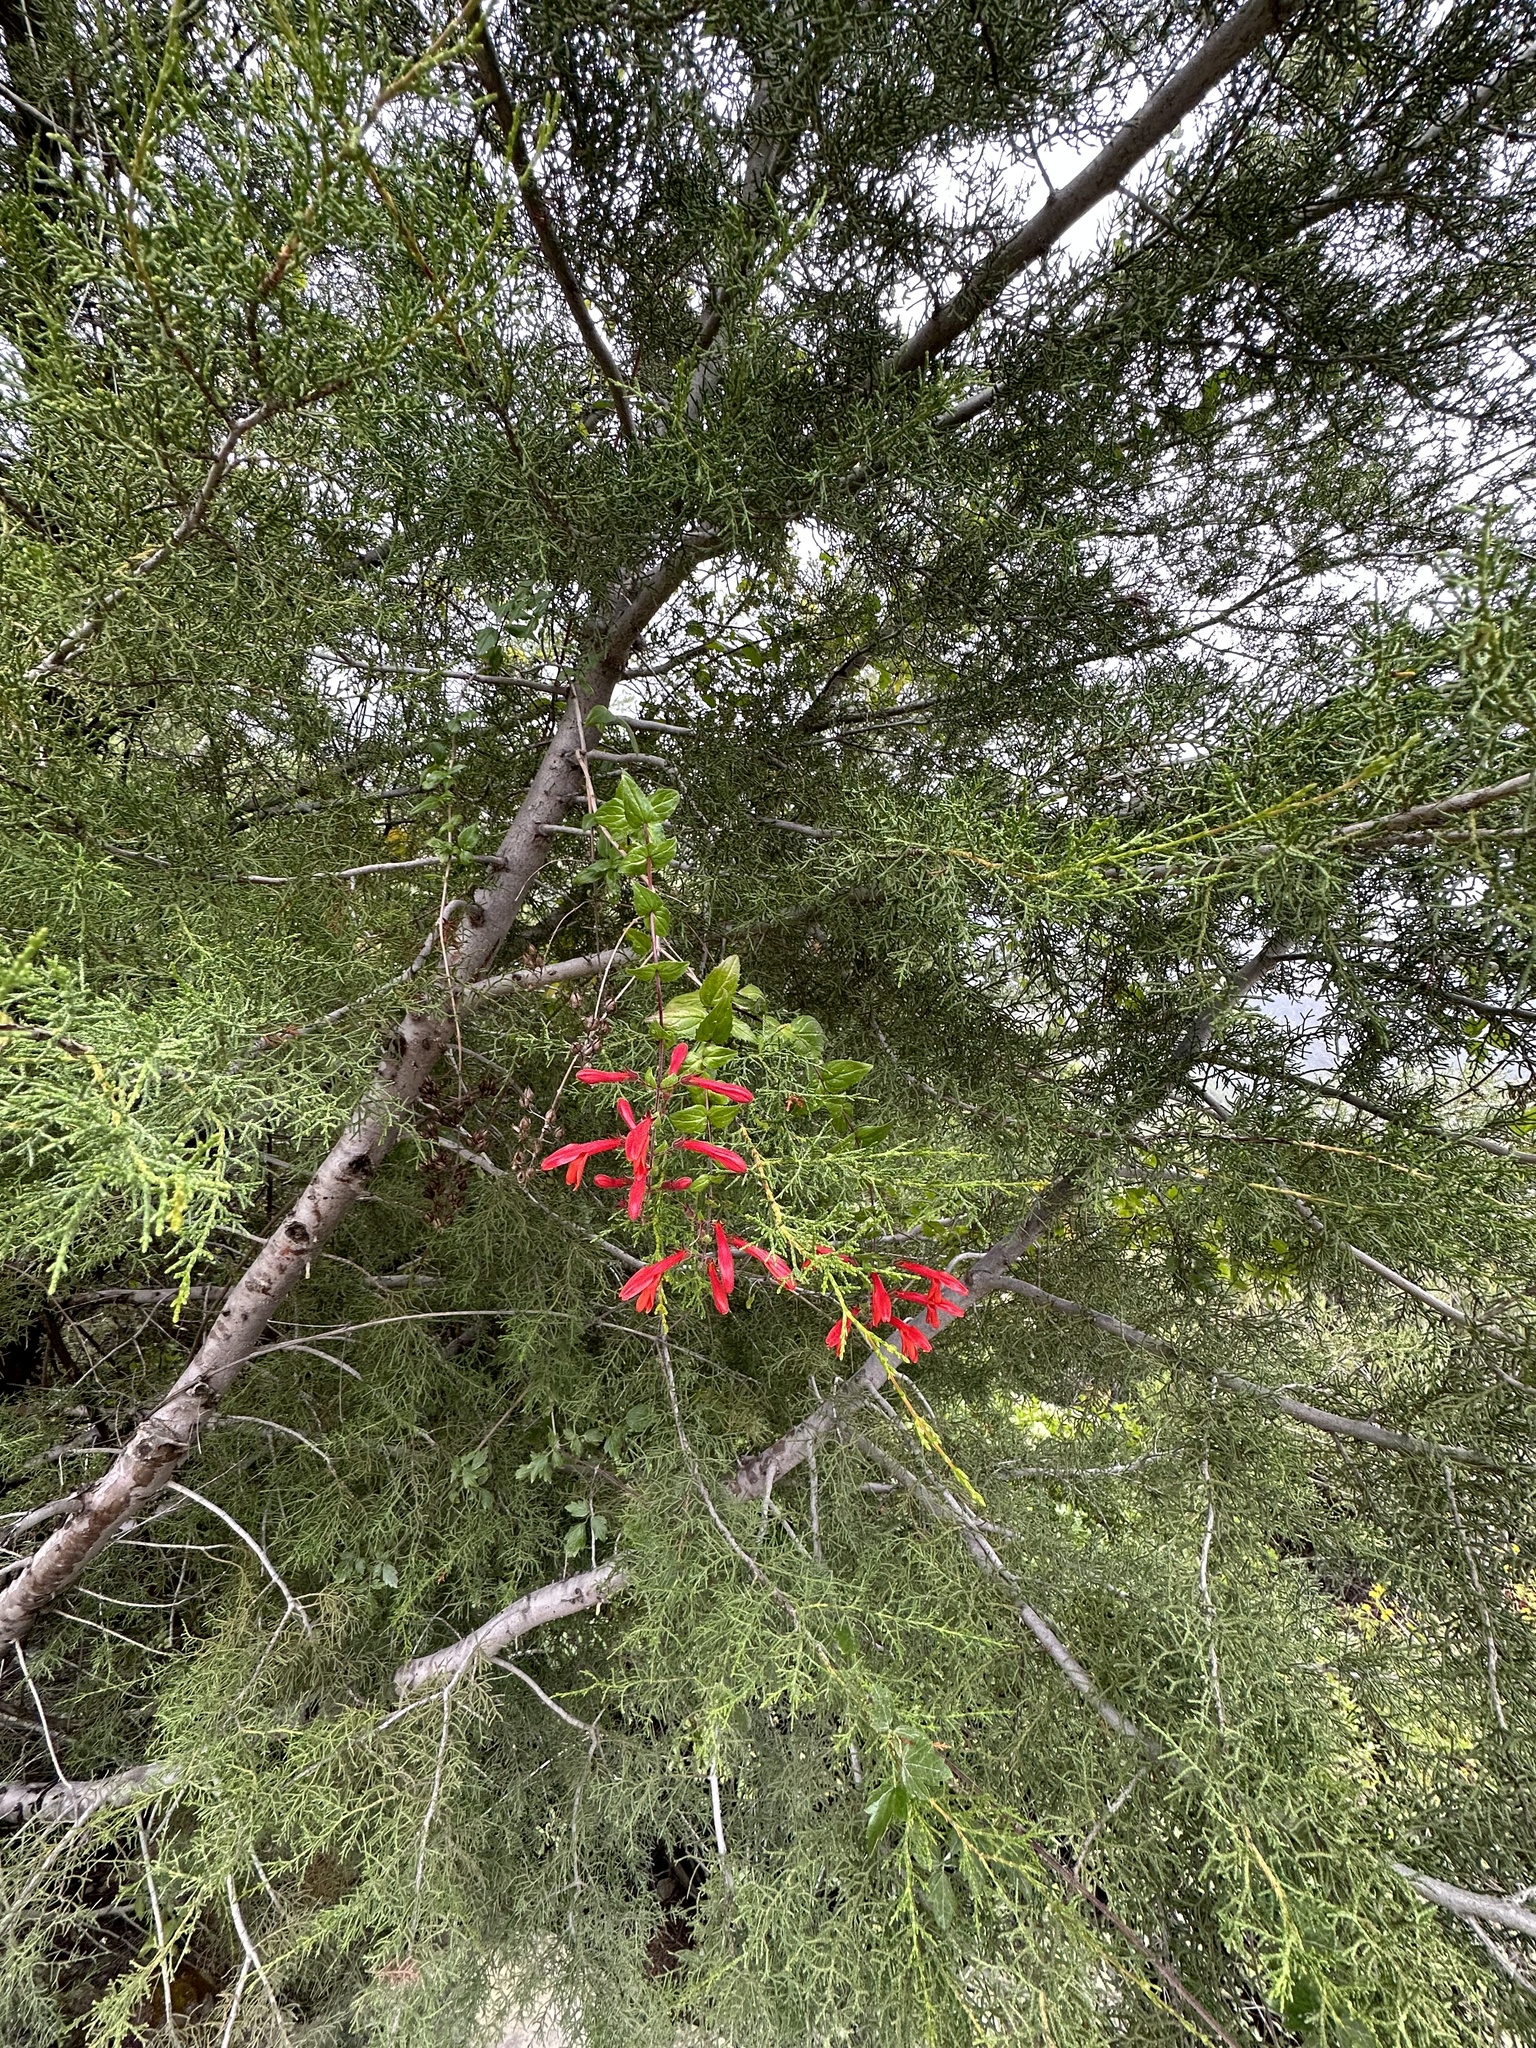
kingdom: Plantae
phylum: Tracheophyta
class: Magnoliopsida
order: Lamiales
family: Plantaginaceae
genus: Keckiella
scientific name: Keckiella cordifolia
